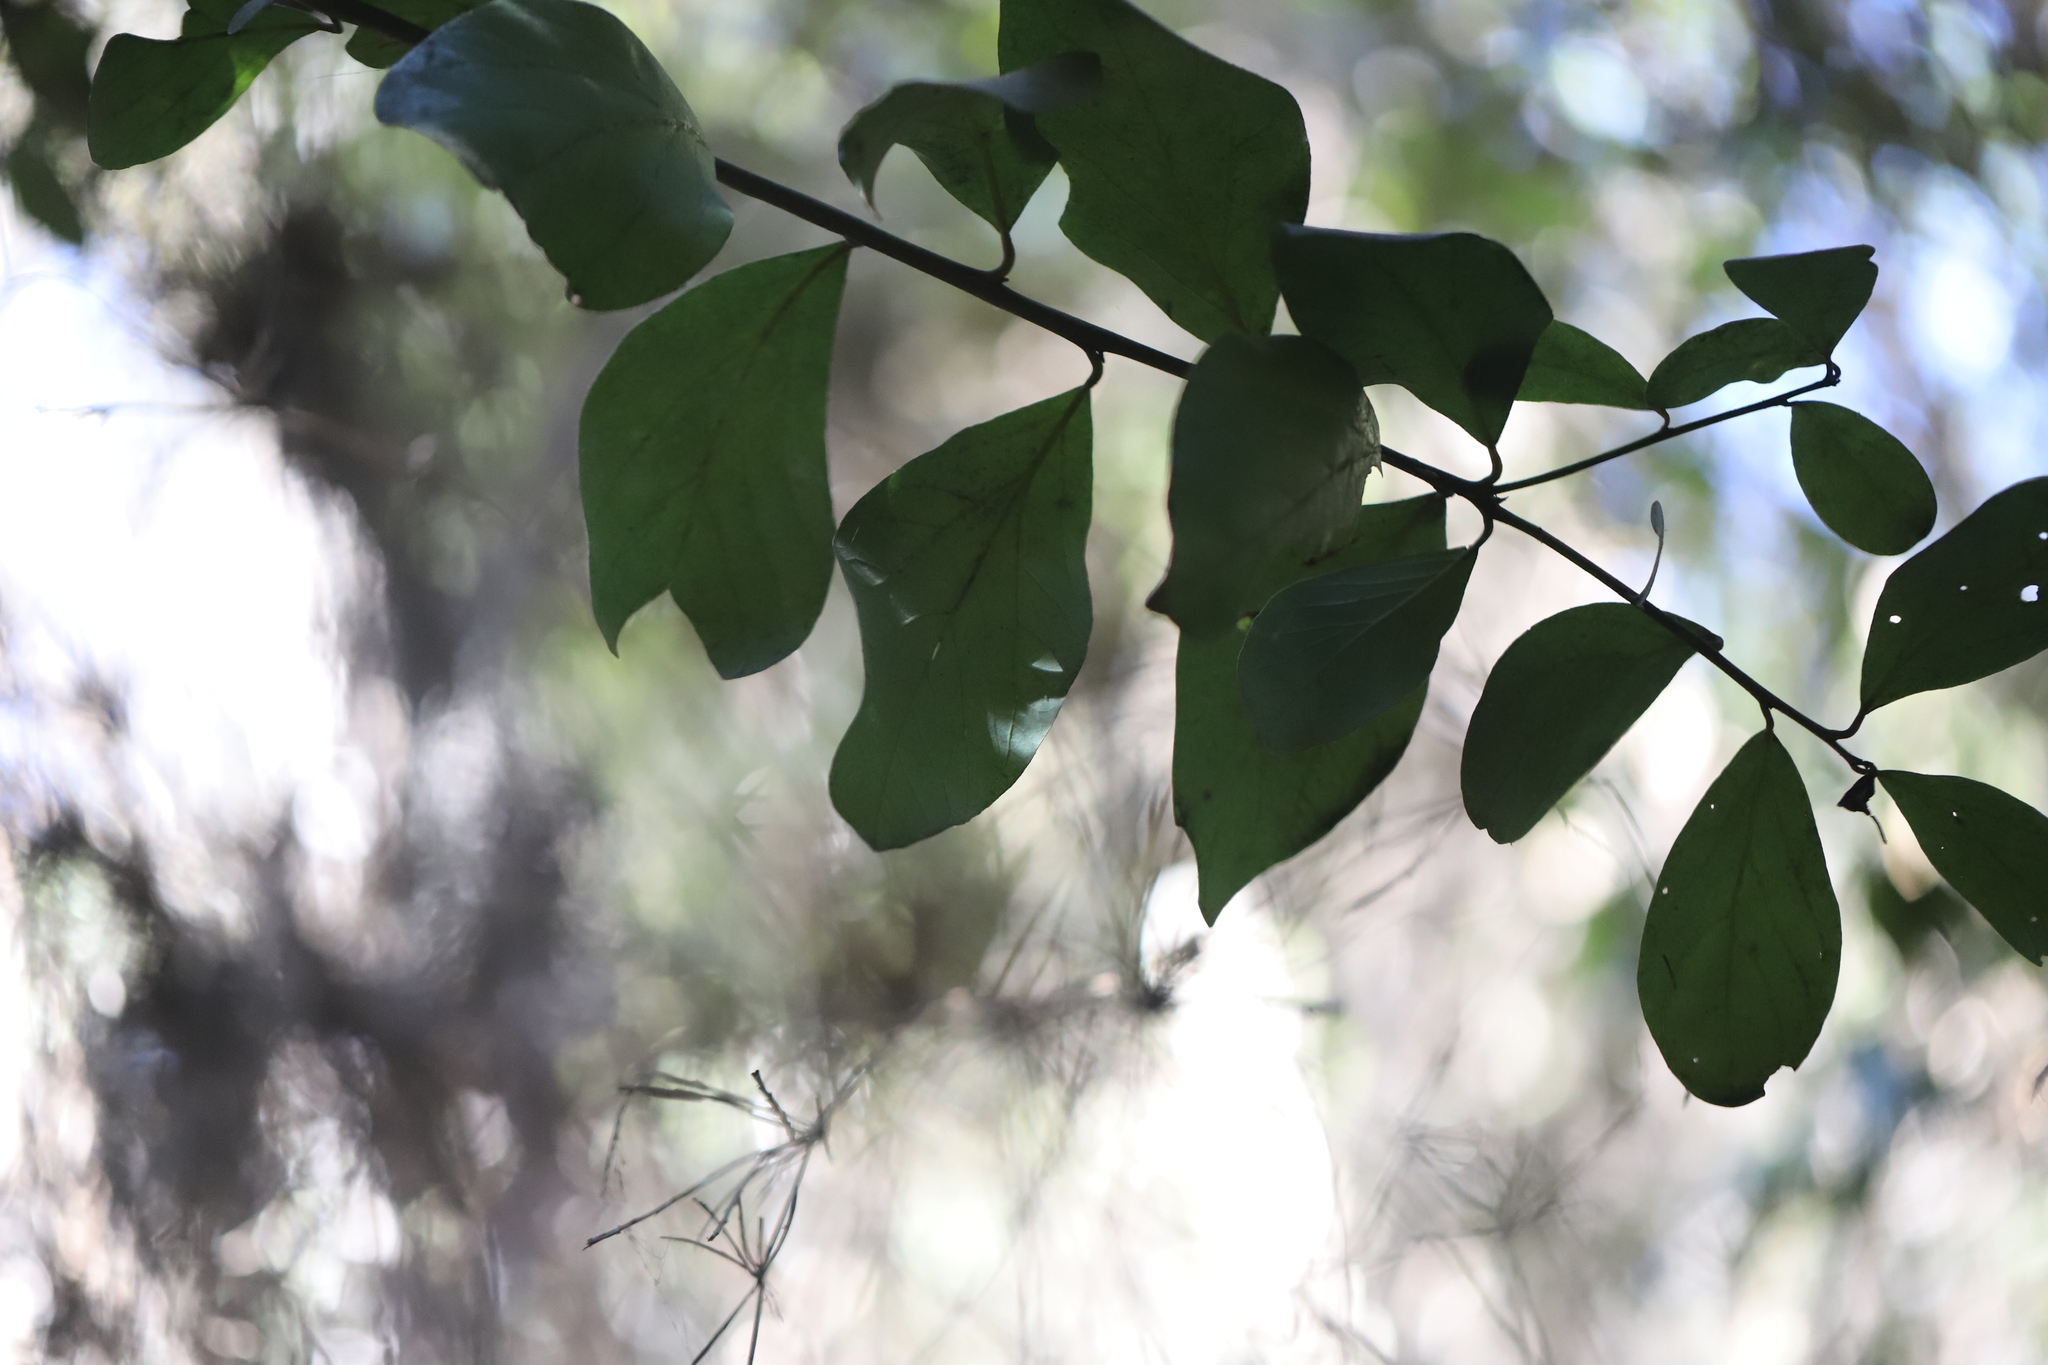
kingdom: Plantae
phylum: Tracheophyta
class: Magnoliopsida
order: Laurales
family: Lauraceae
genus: Persea
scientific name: Persea lingue
